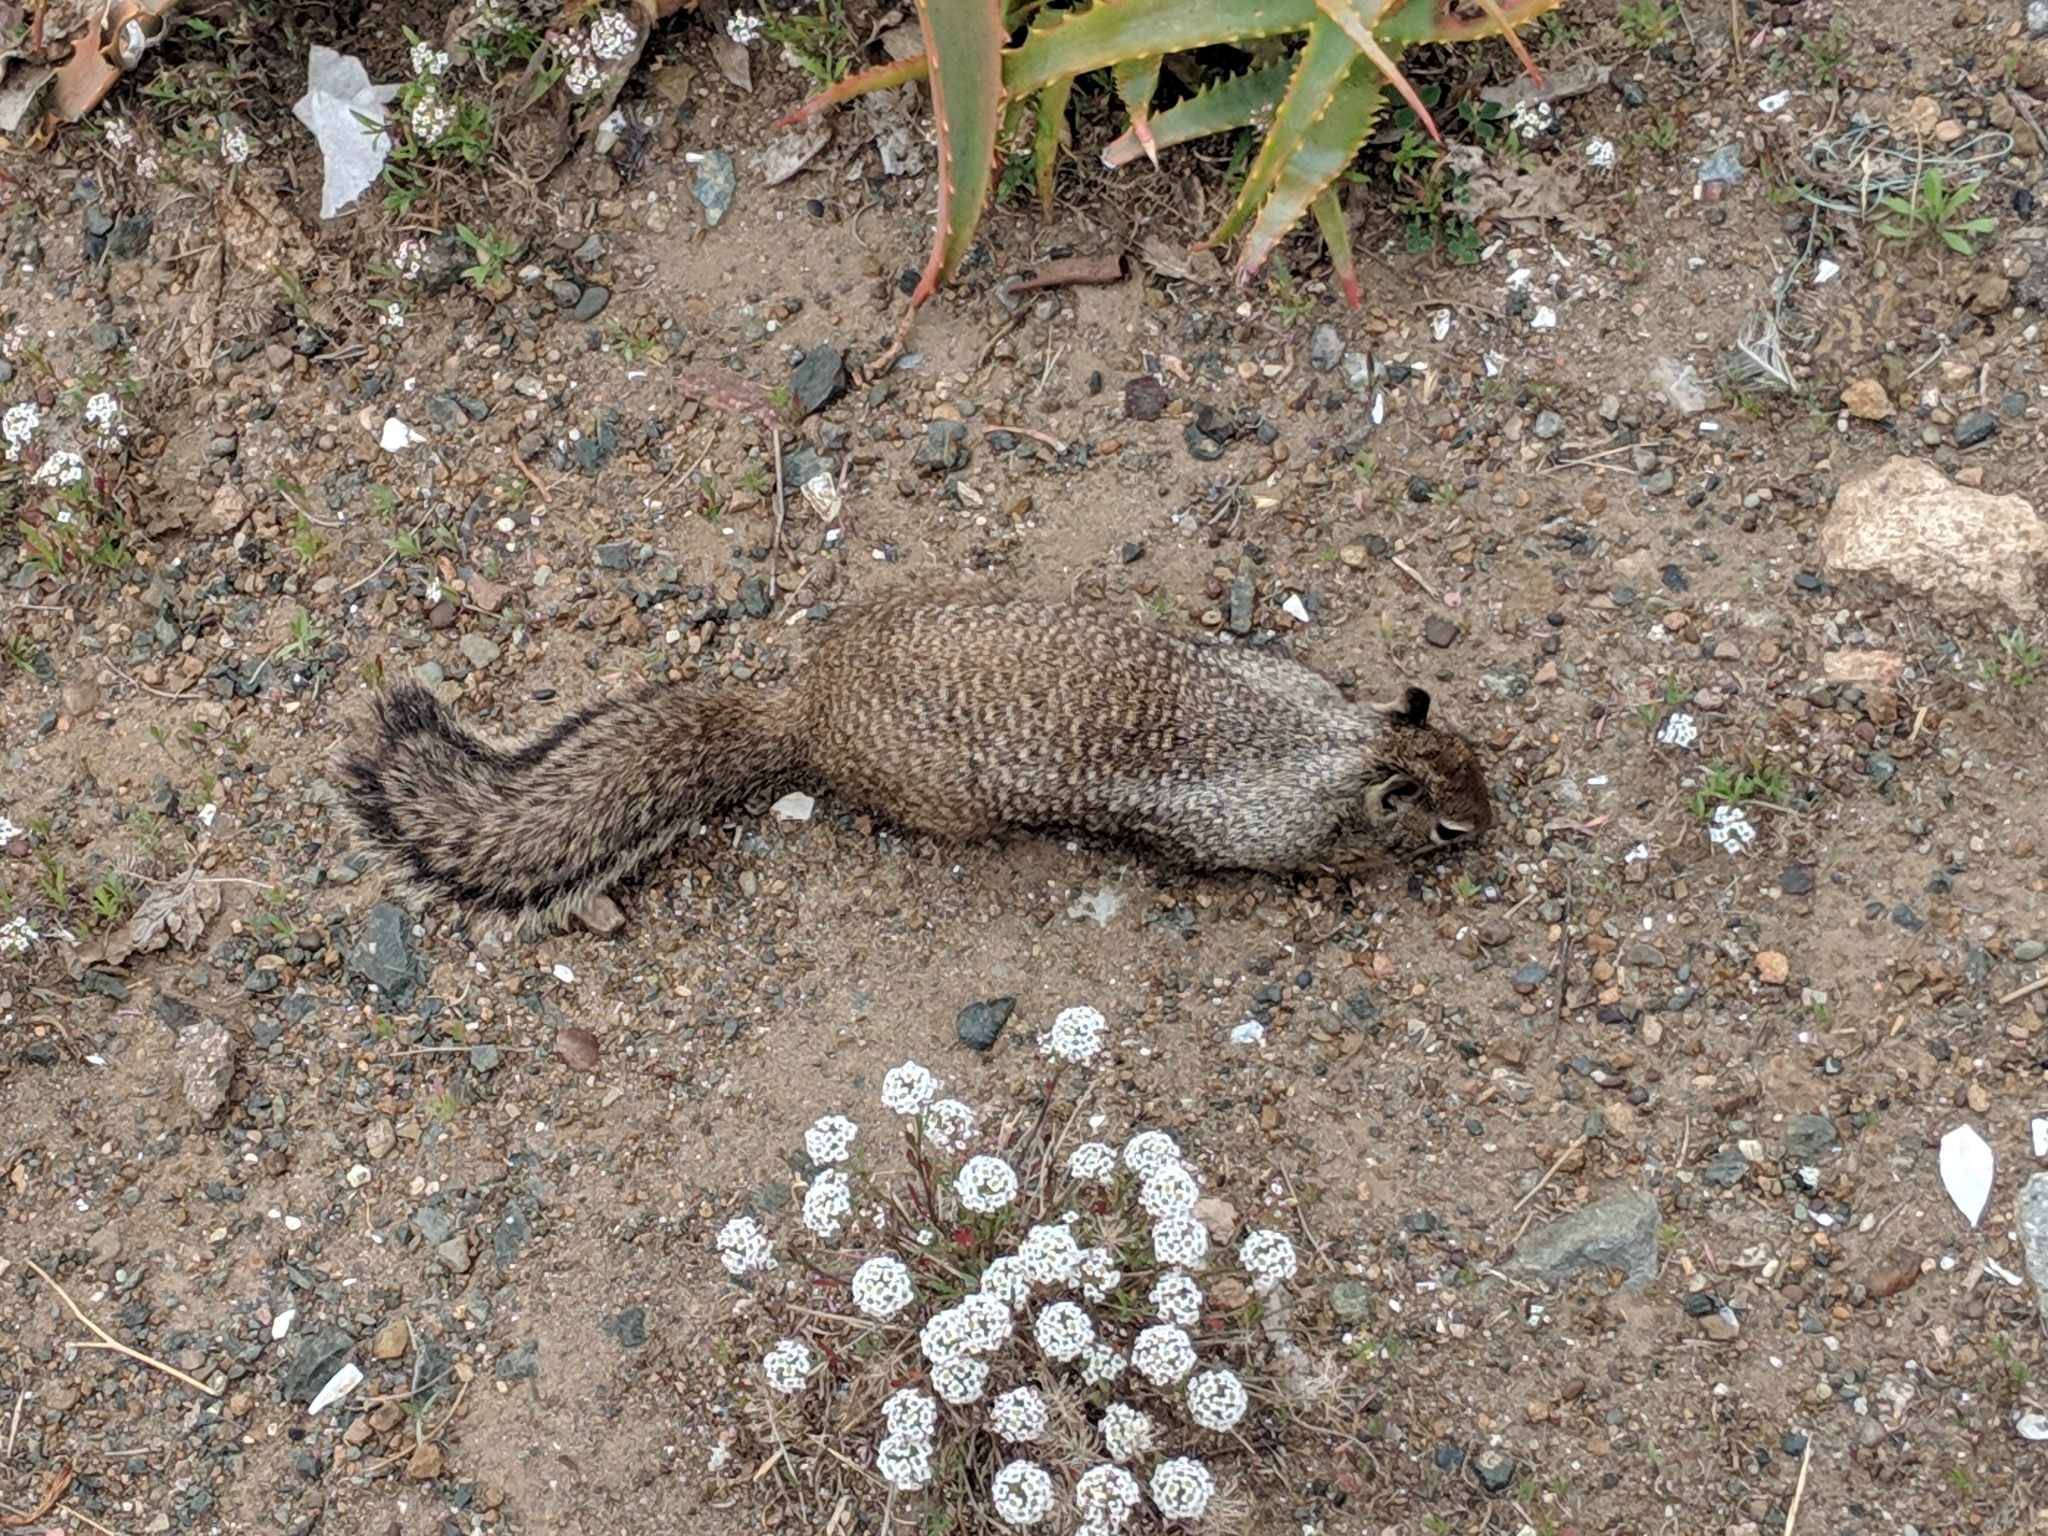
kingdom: Animalia
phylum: Chordata
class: Mammalia
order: Rodentia
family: Sciuridae
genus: Otospermophilus
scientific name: Otospermophilus beecheyi
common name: California ground squirrel
